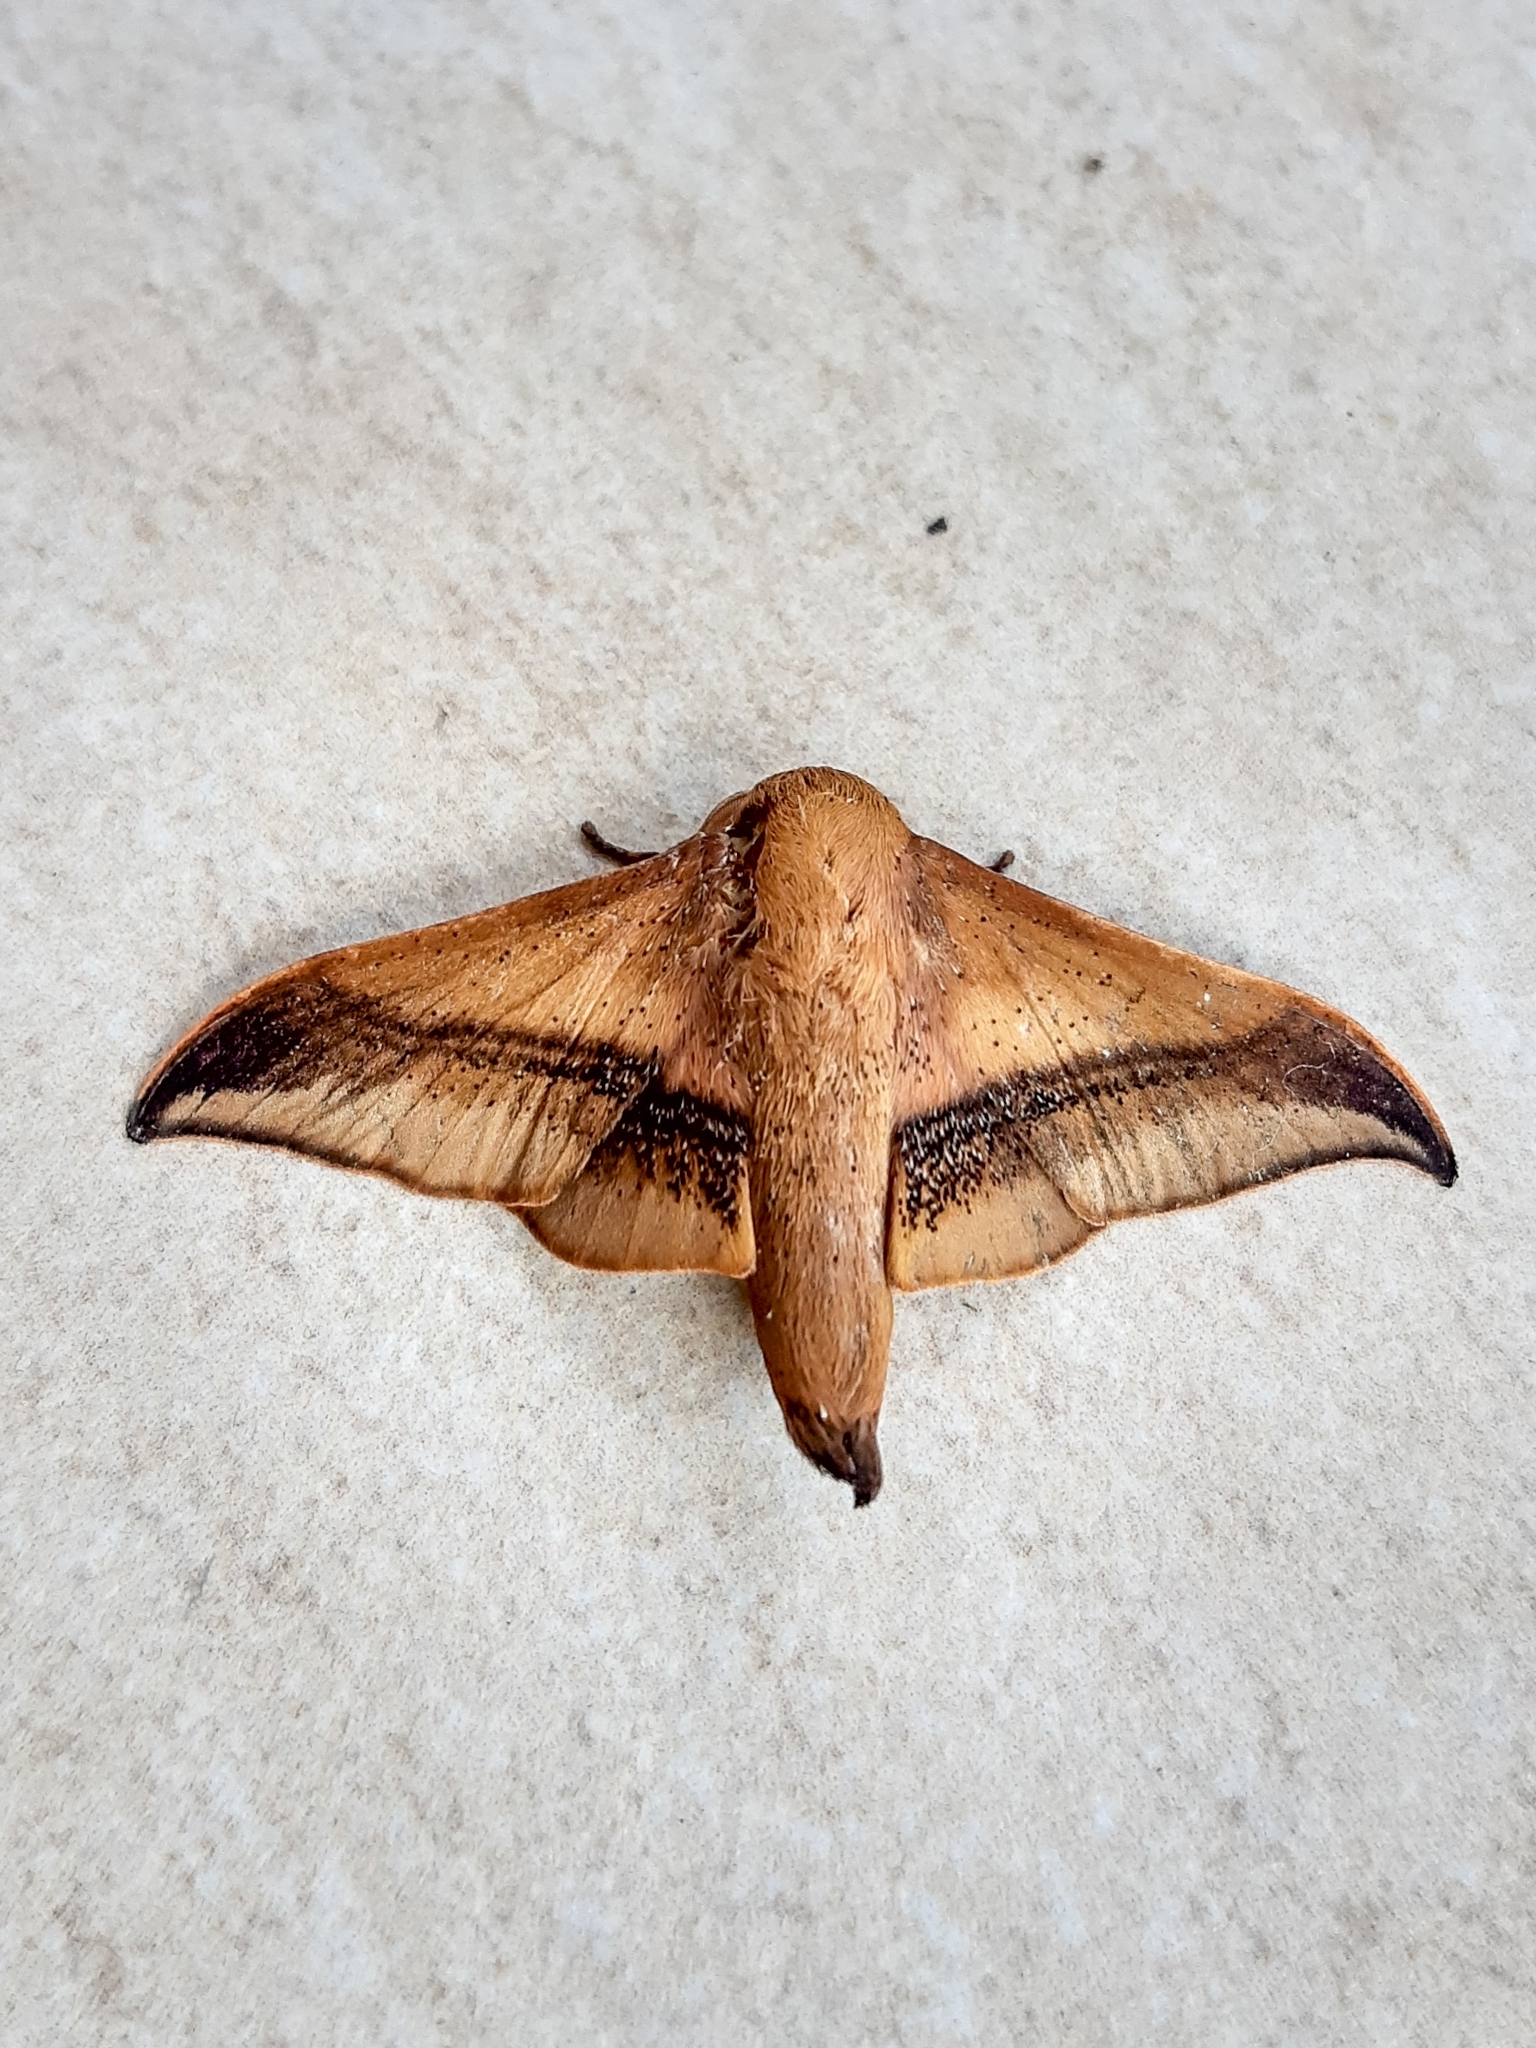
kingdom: Animalia
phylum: Arthropoda
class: Insecta
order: Lepidoptera
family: Mimallonidae
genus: Psychocampa
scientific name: Psychocampa
